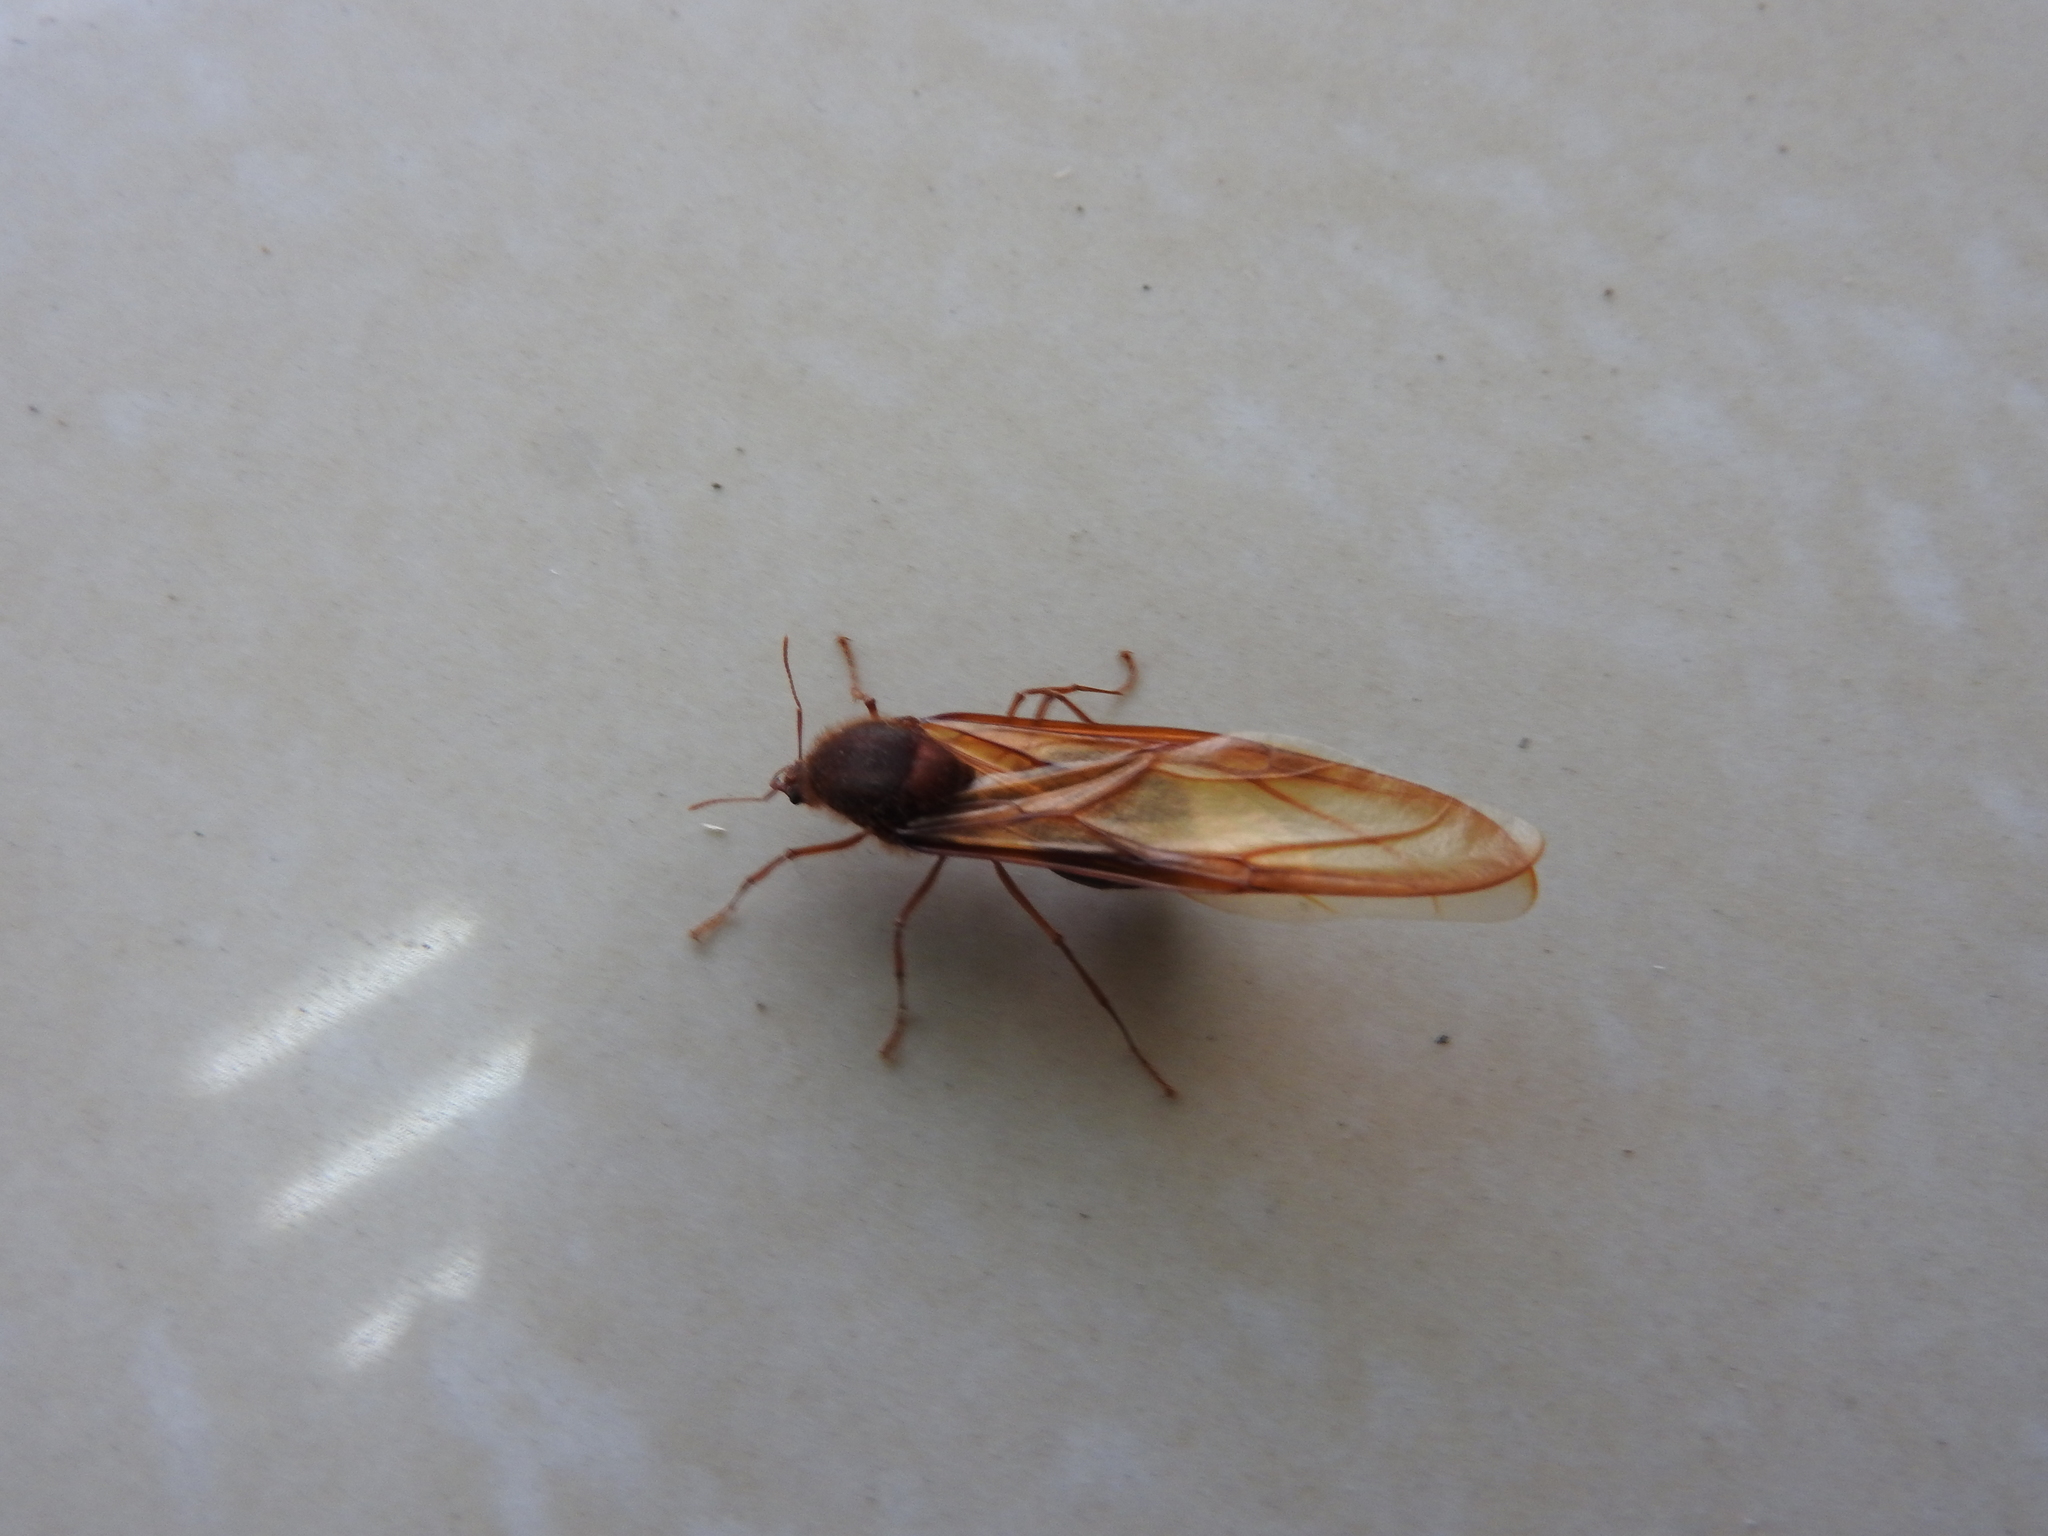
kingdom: Animalia
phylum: Arthropoda
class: Insecta
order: Hymenoptera
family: Formicidae
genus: Atta
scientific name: Atta mexicana
